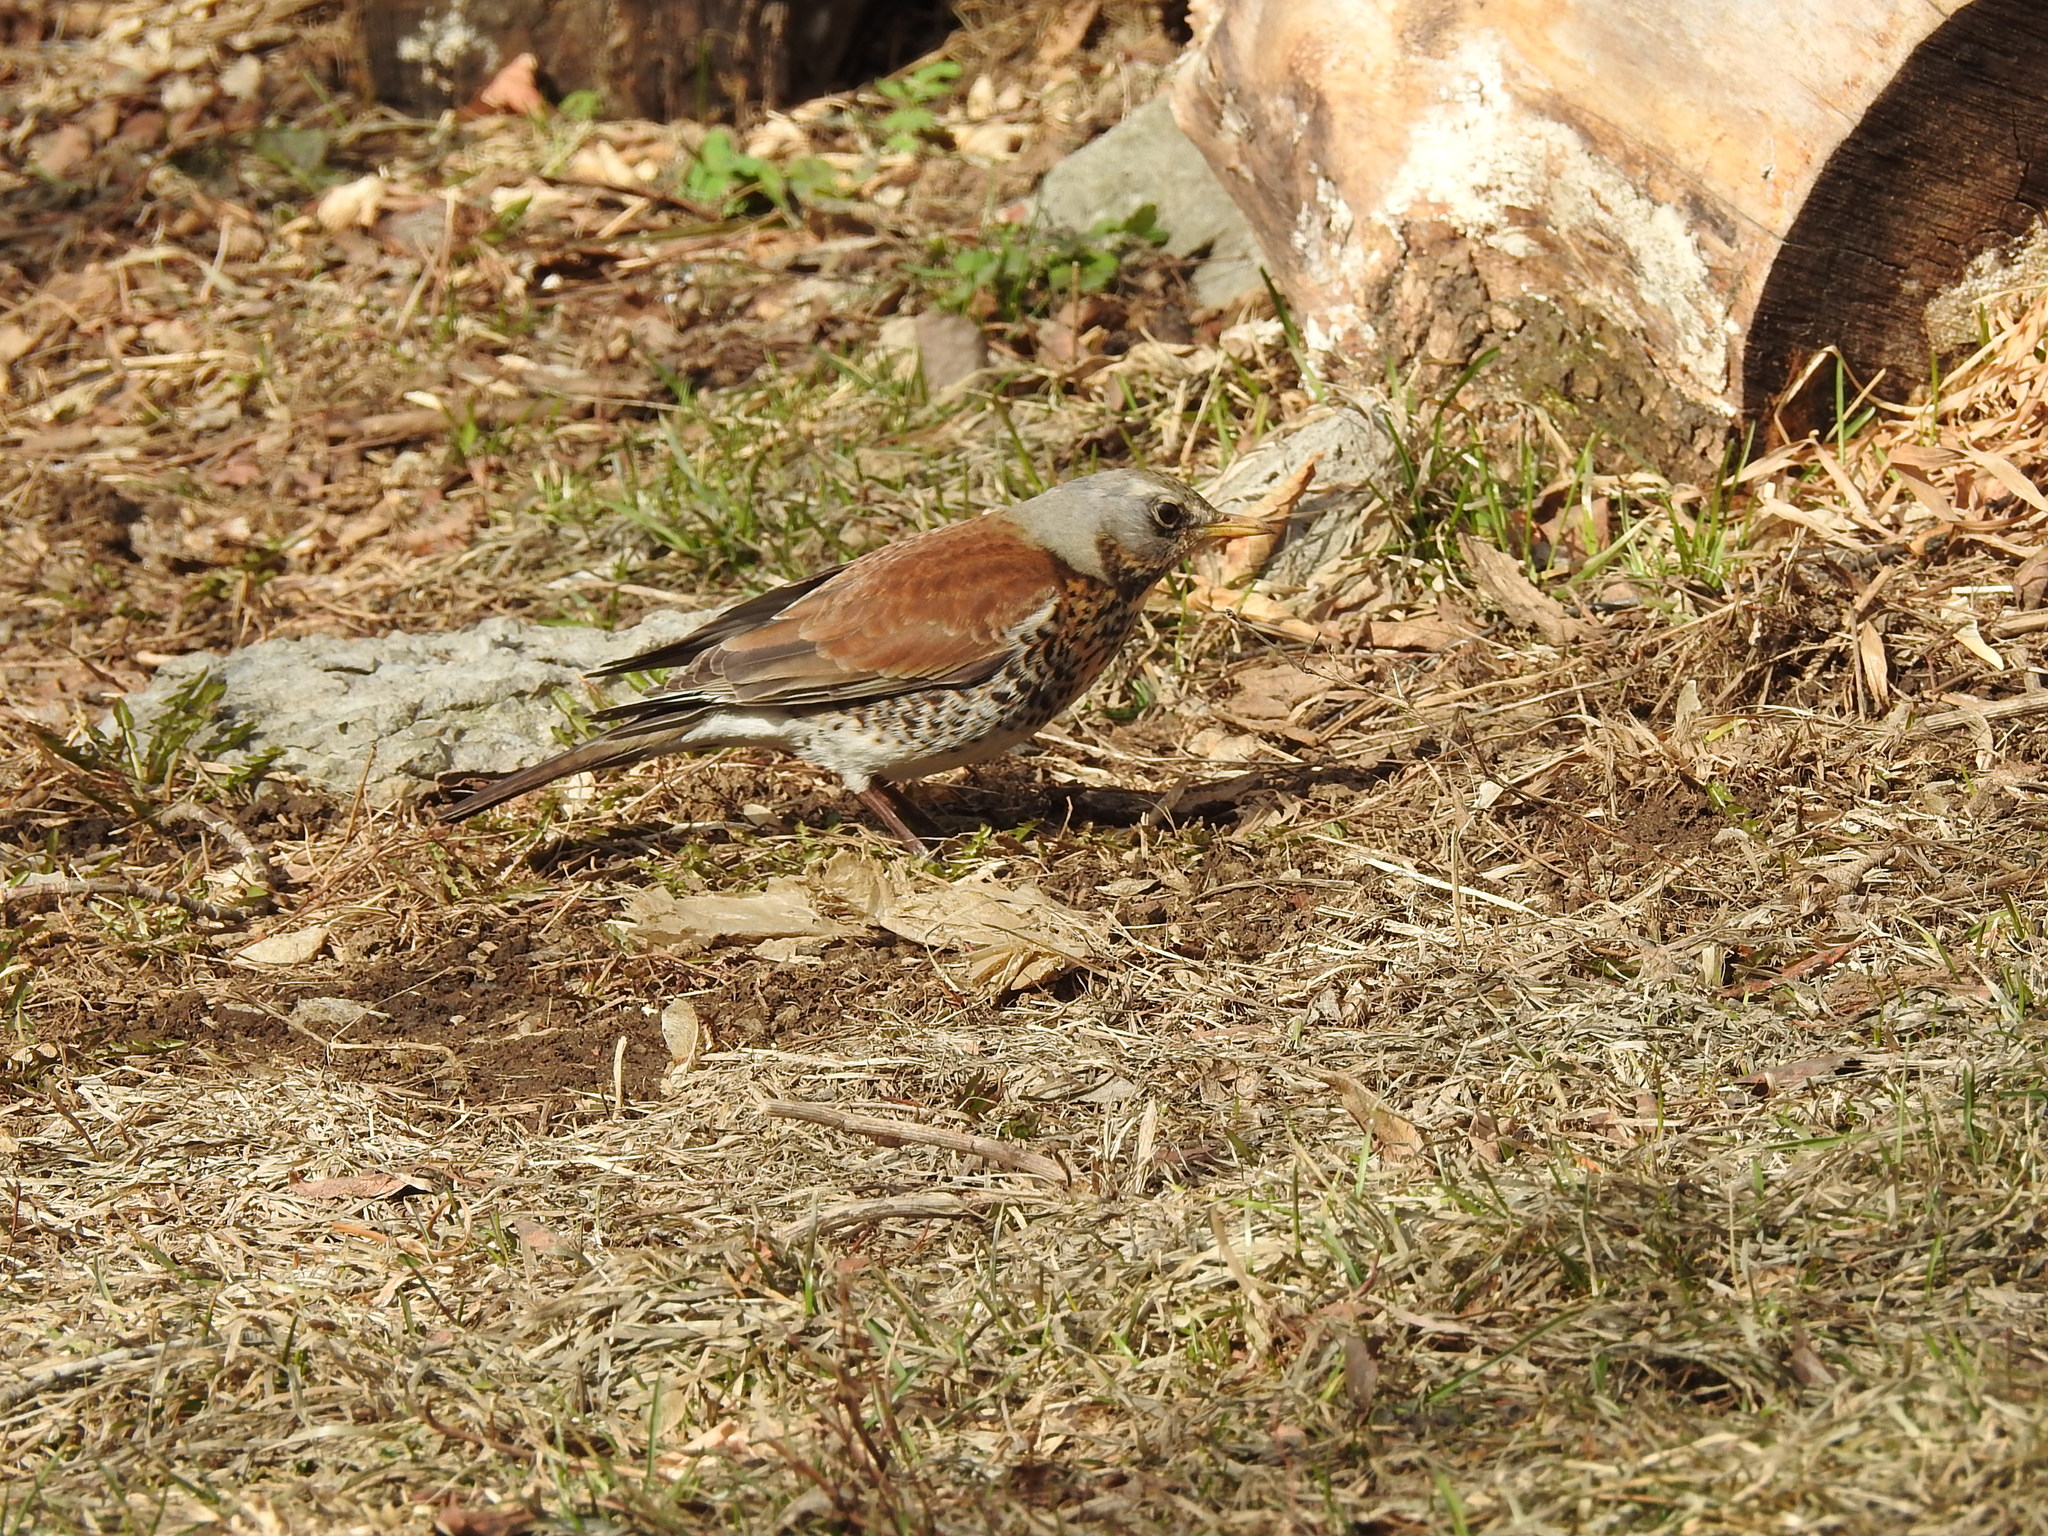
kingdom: Animalia
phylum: Chordata
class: Aves
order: Passeriformes
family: Turdidae
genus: Turdus
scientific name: Turdus pilaris
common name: Fieldfare
